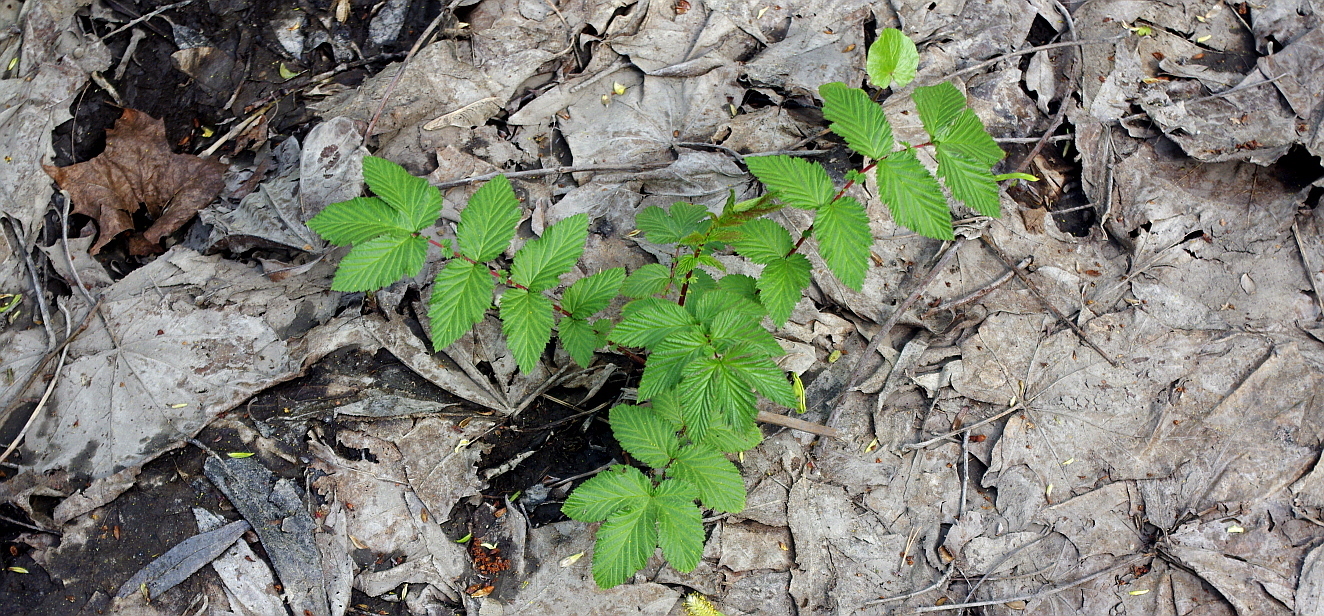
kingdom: Plantae
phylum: Tracheophyta
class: Magnoliopsida
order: Rosales
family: Rosaceae
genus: Filipendula
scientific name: Filipendula ulmaria
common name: Meadowsweet
